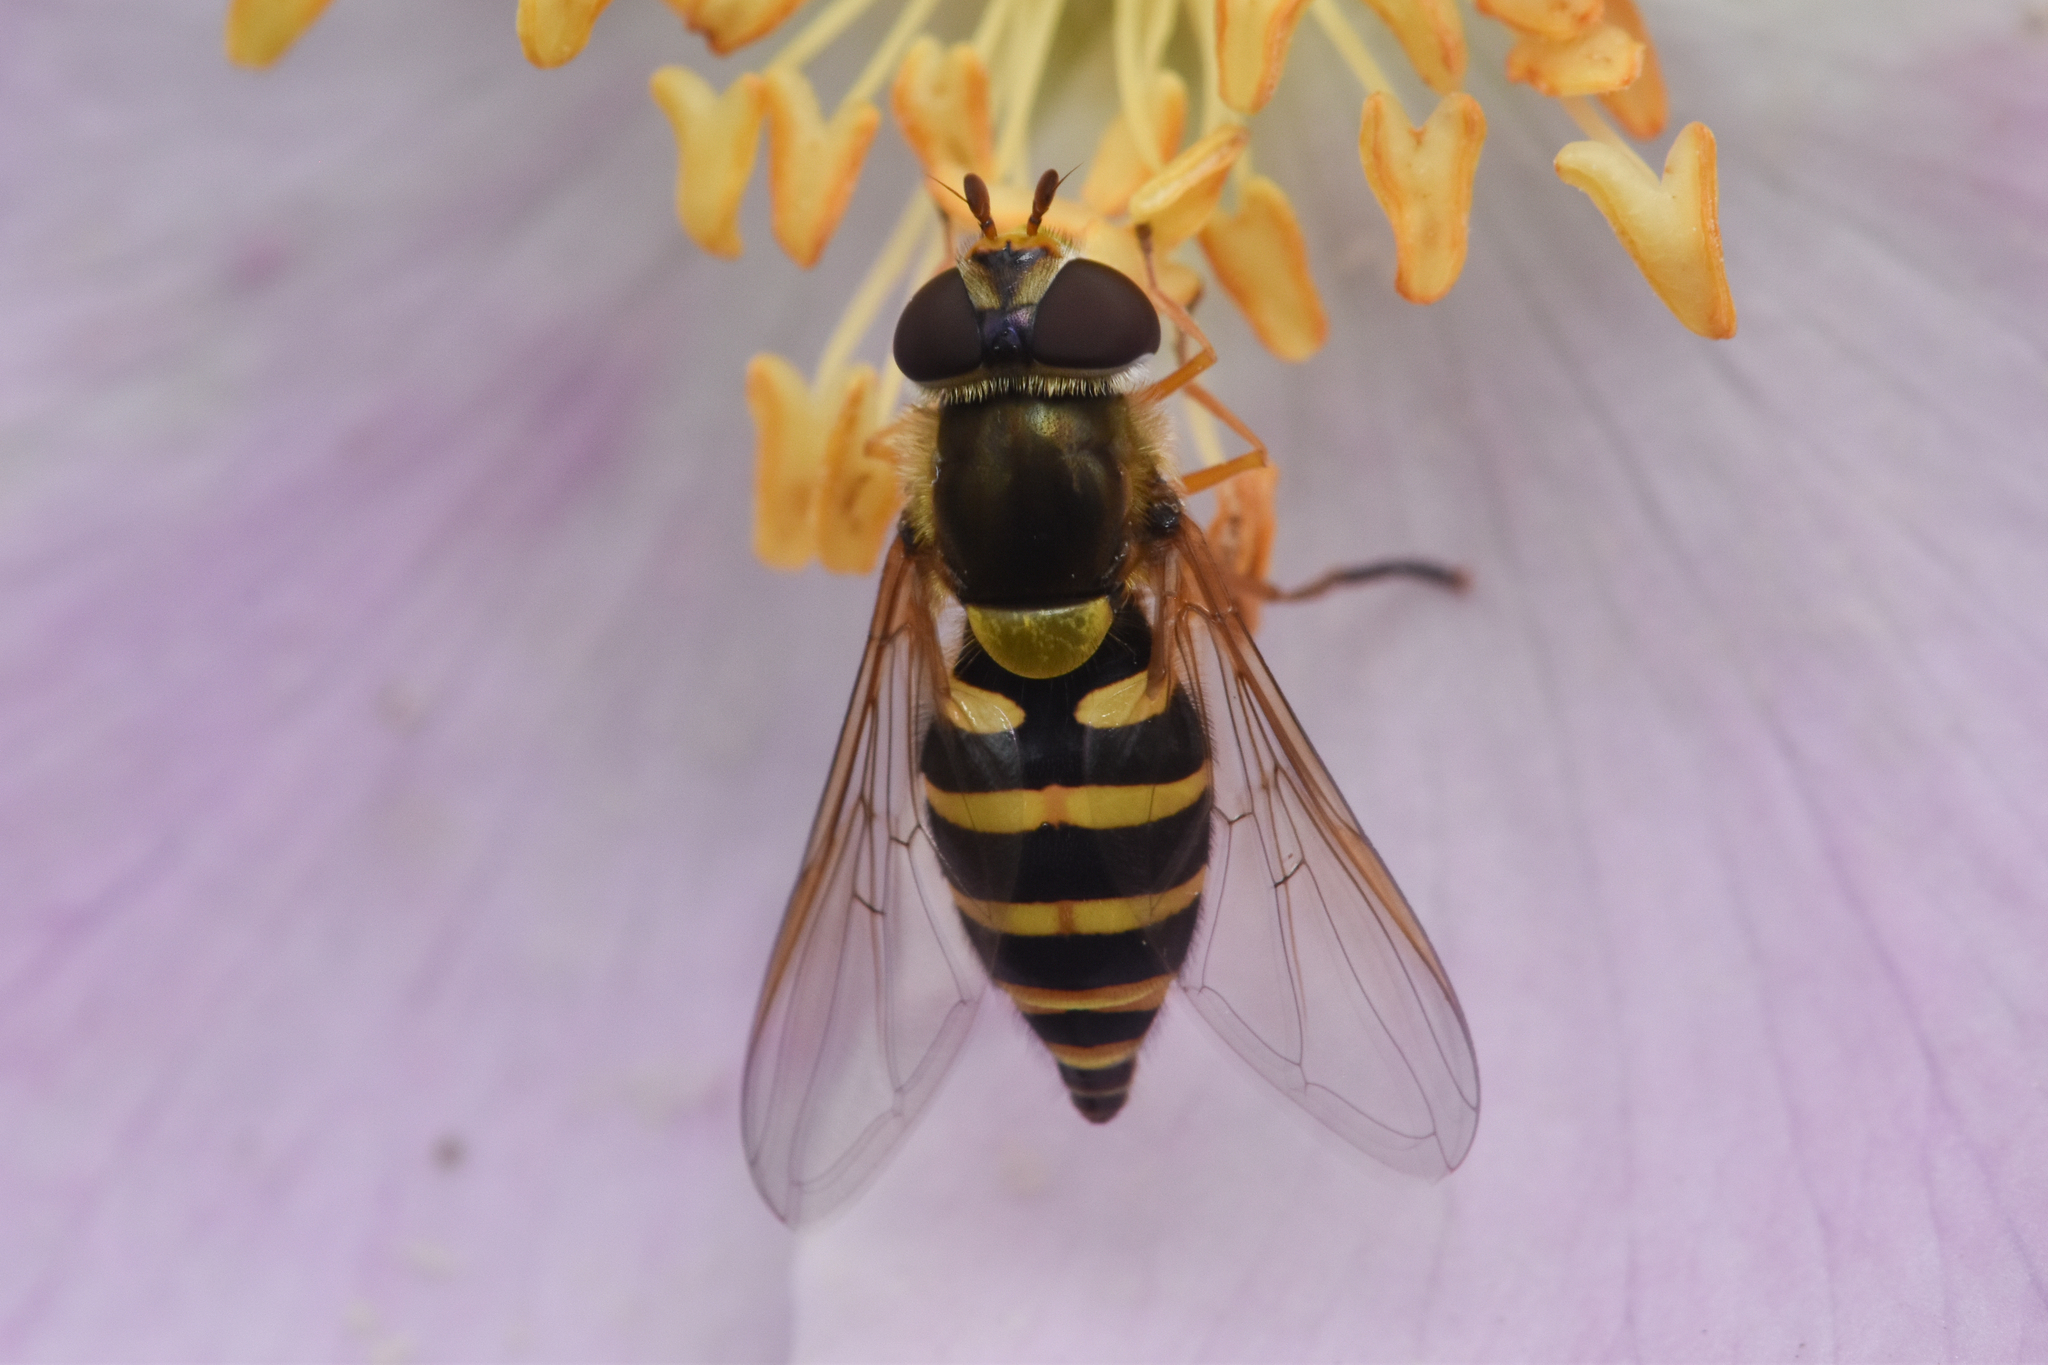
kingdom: Animalia
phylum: Arthropoda
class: Insecta
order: Diptera
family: Syrphidae
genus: Syrphus
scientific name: Syrphus
